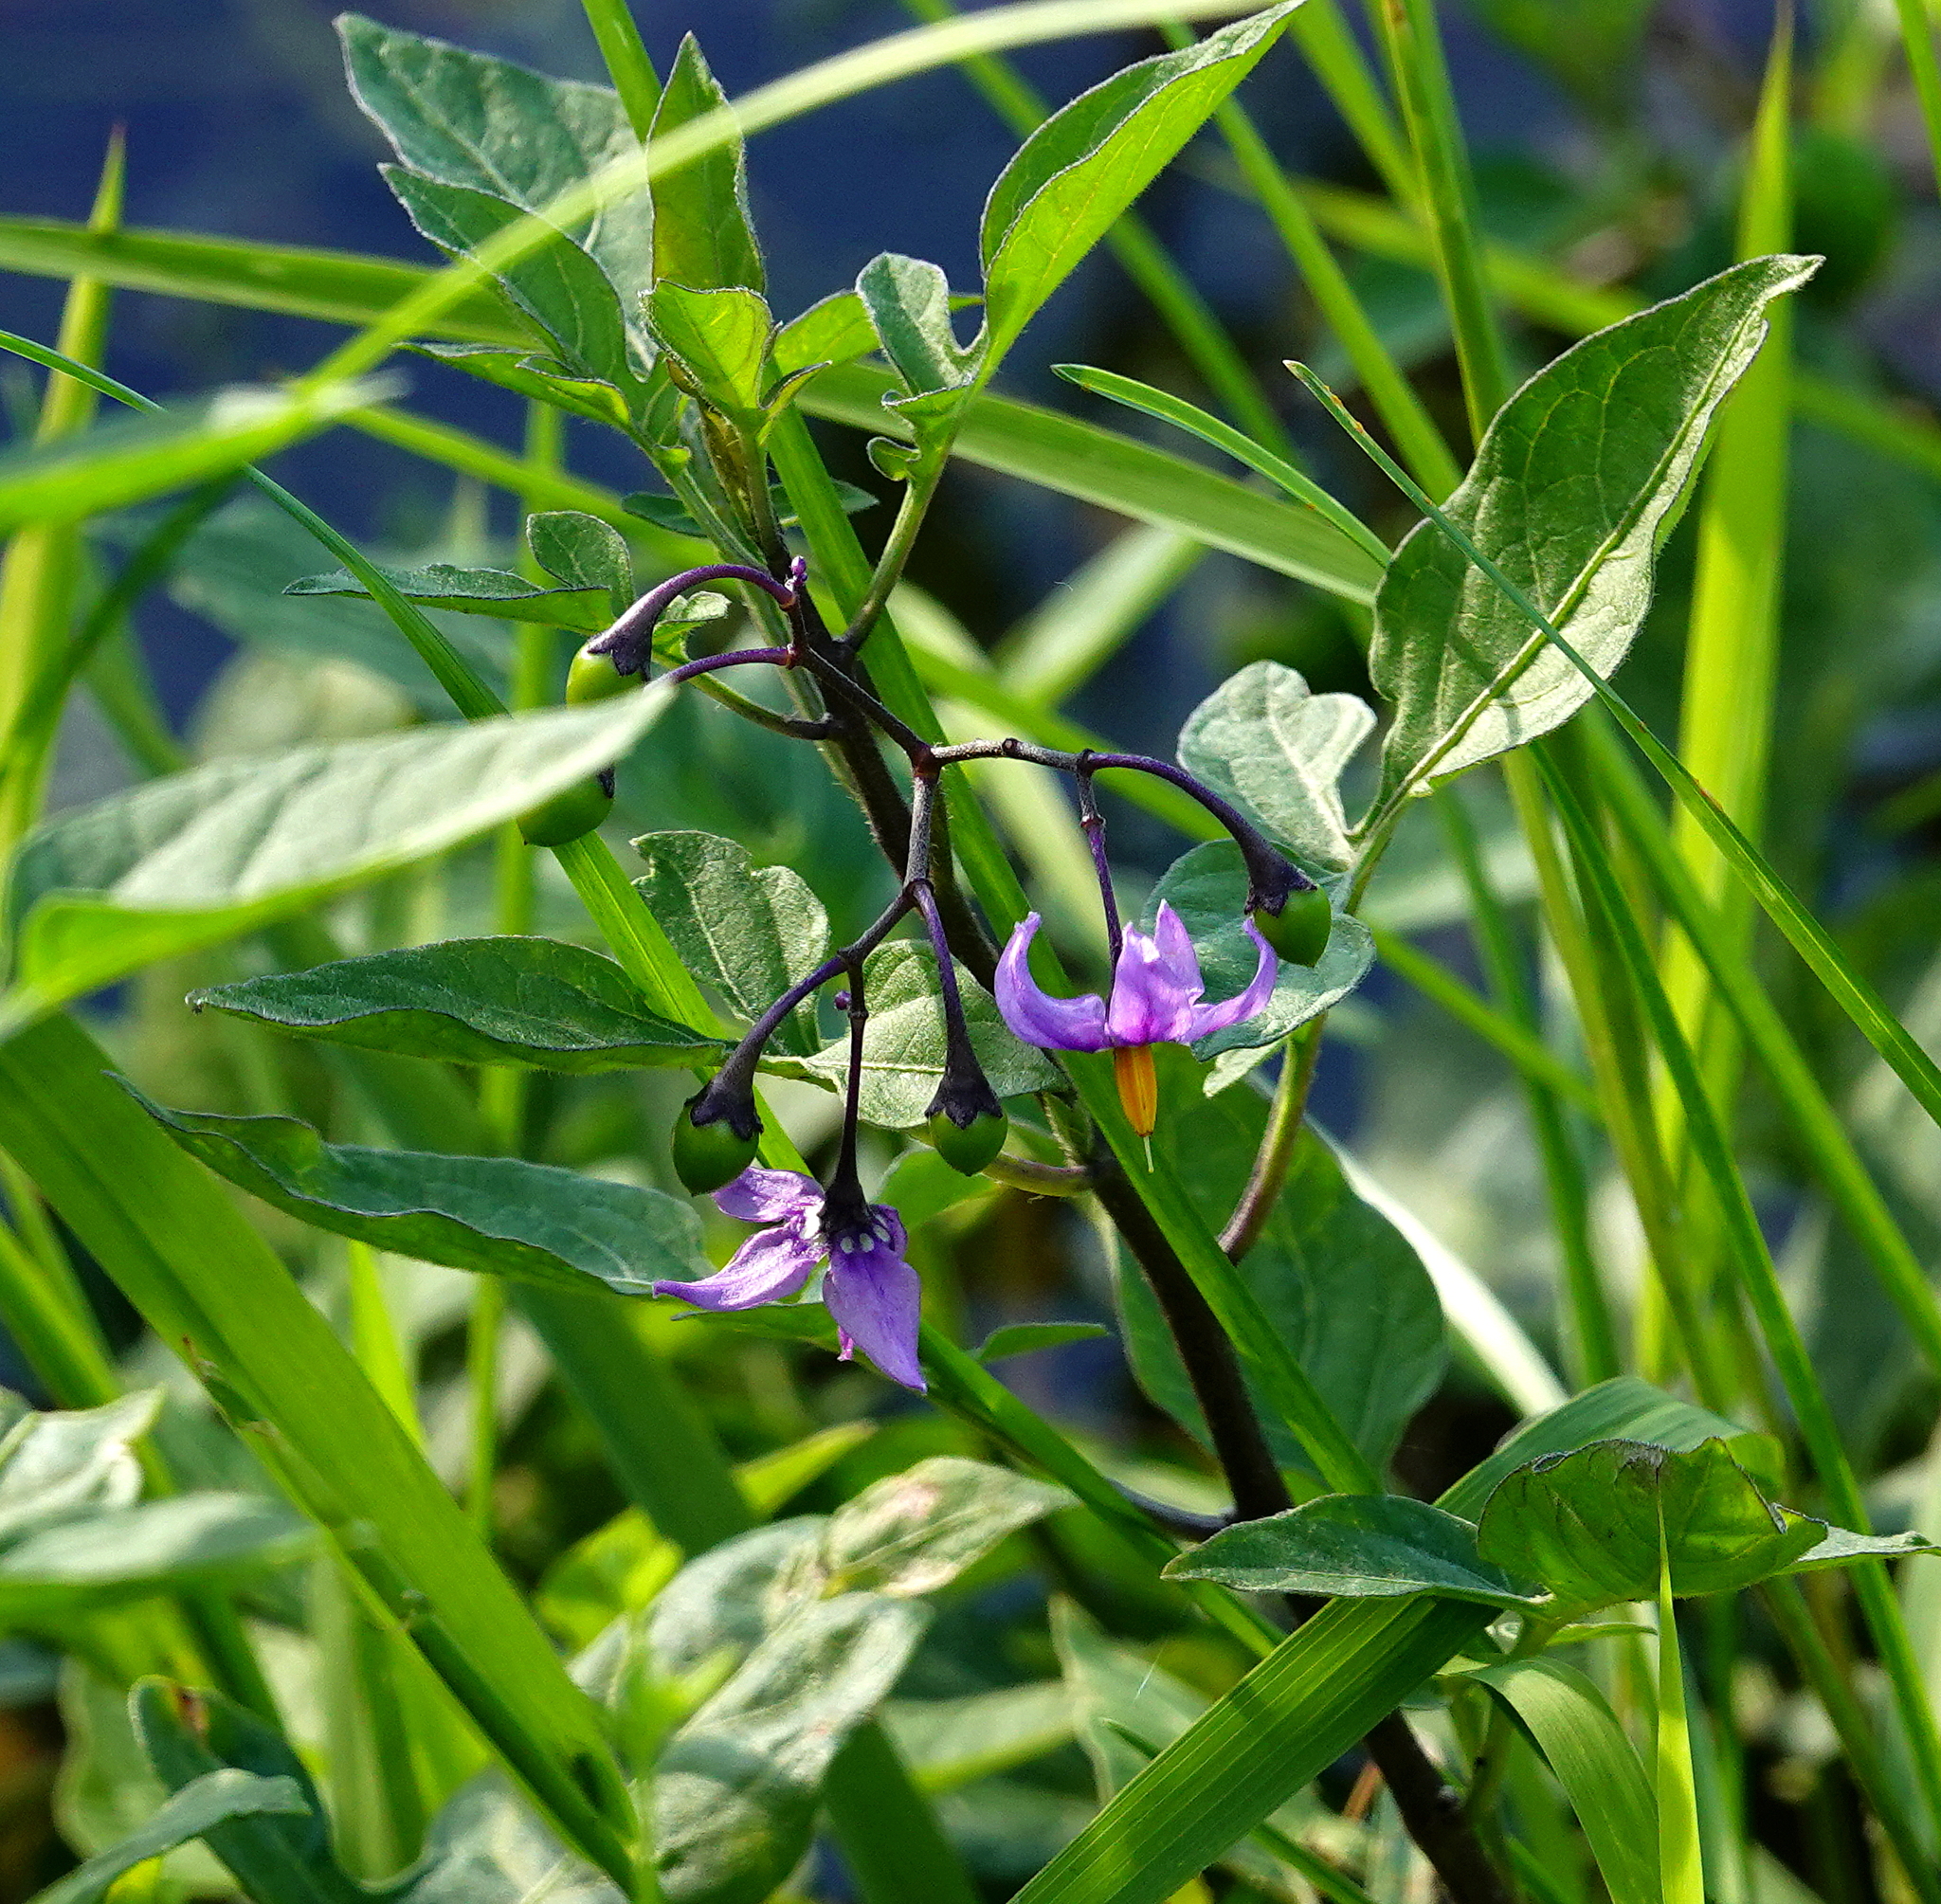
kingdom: Plantae
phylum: Tracheophyta
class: Magnoliopsida
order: Solanales
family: Solanaceae
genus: Solanum
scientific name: Solanum dulcamara
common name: Climbing nightshade
